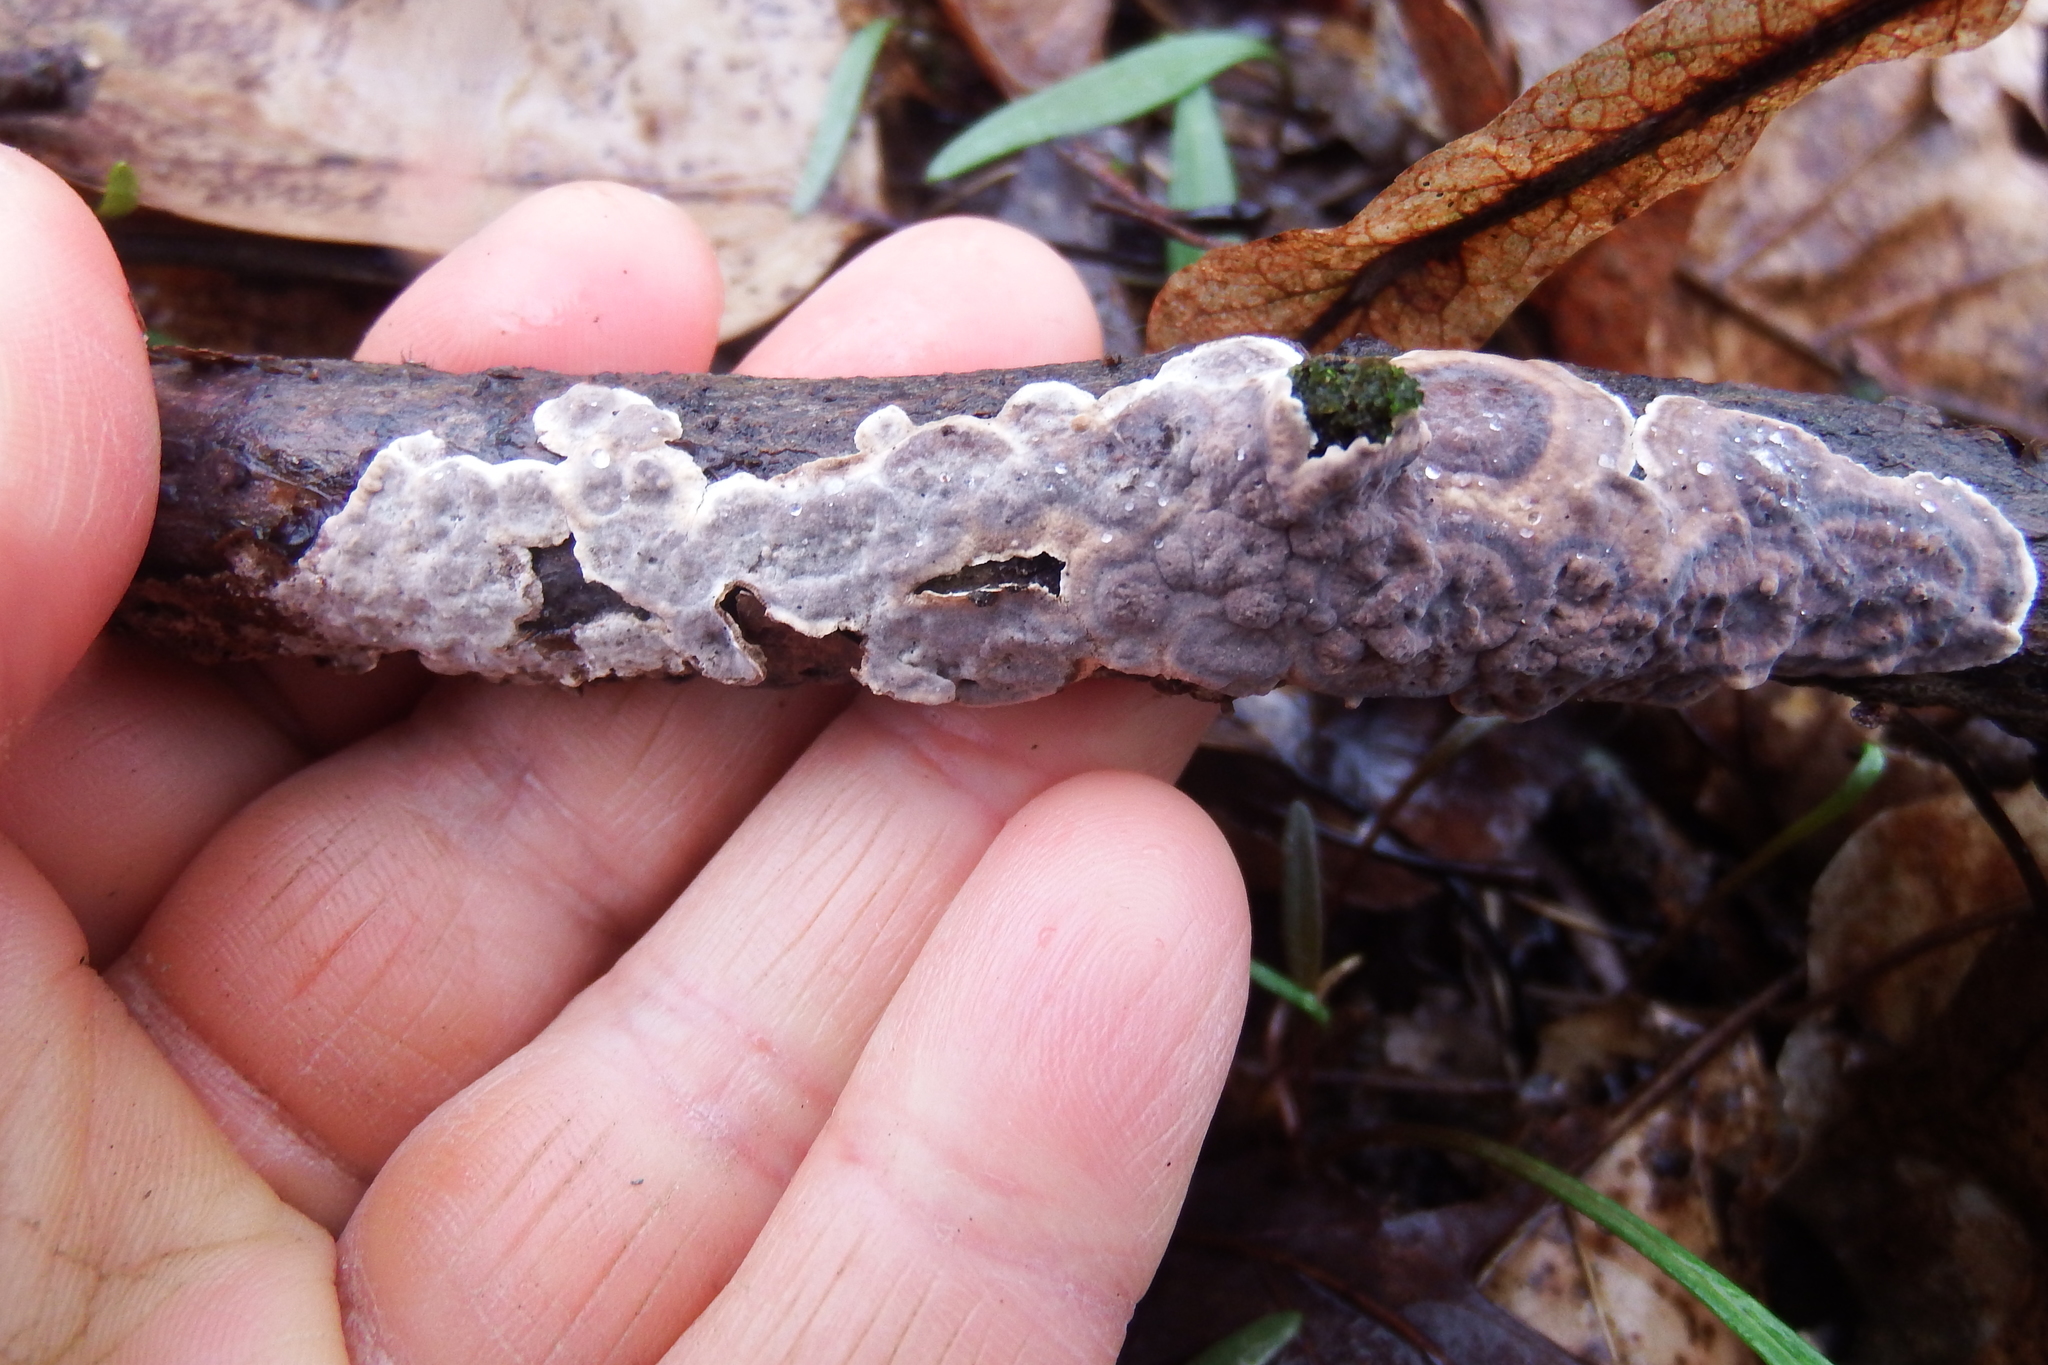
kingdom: Fungi
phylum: Basidiomycota
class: Agaricomycetes
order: Russulales
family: Peniophoraceae
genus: Peniophora
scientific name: Peniophora albobadia
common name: Giraffe spots
